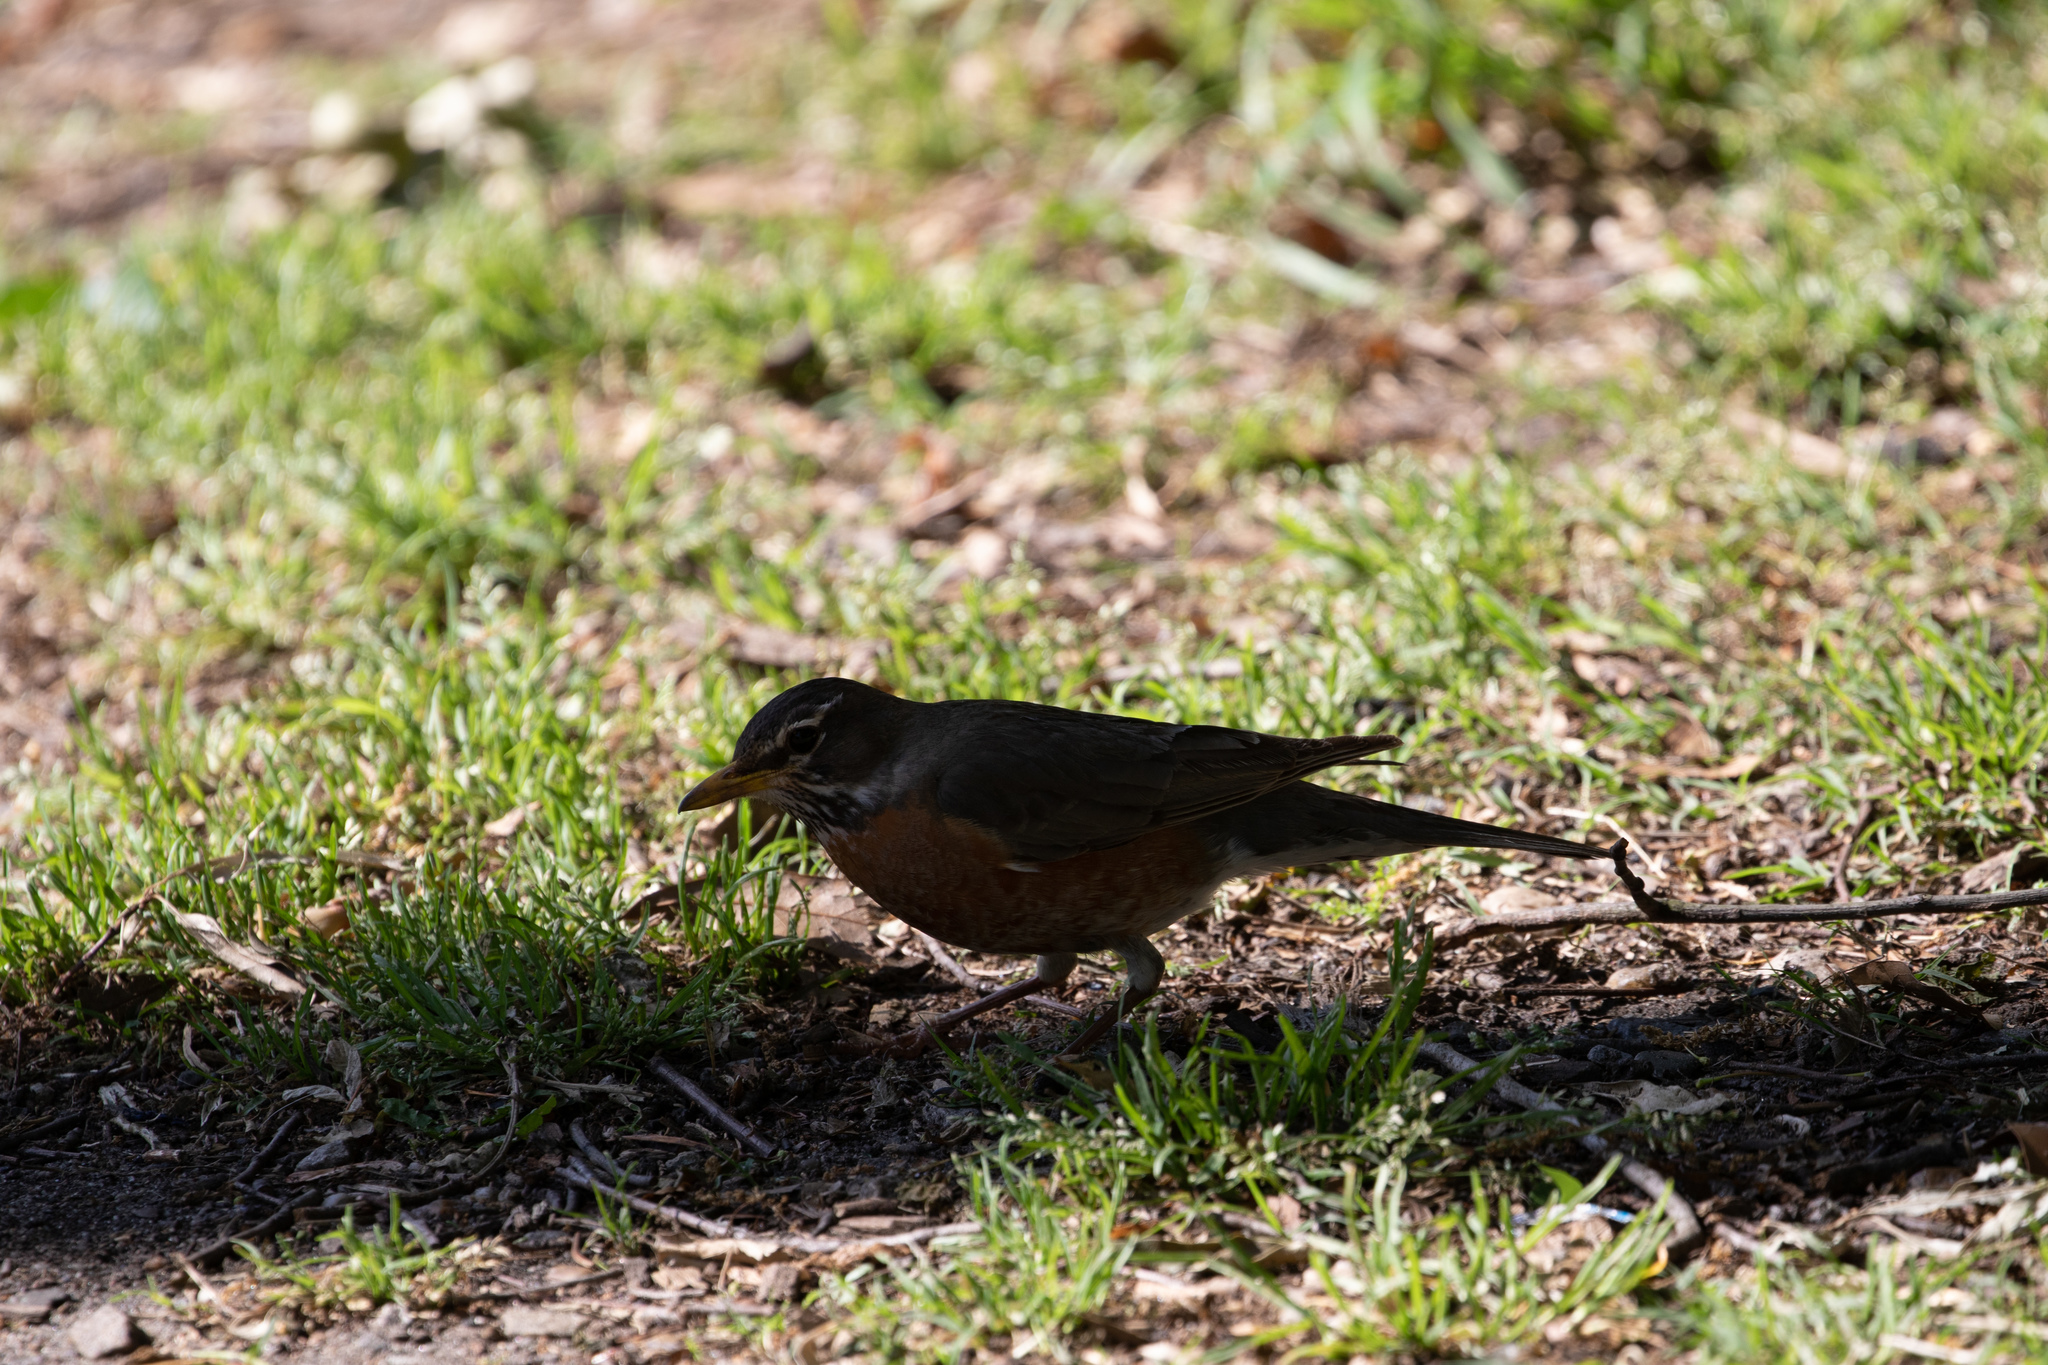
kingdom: Animalia
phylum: Chordata
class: Aves
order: Passeriformes
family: Turdidae
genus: Turdus
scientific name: Turdus migratorius
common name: American robin
